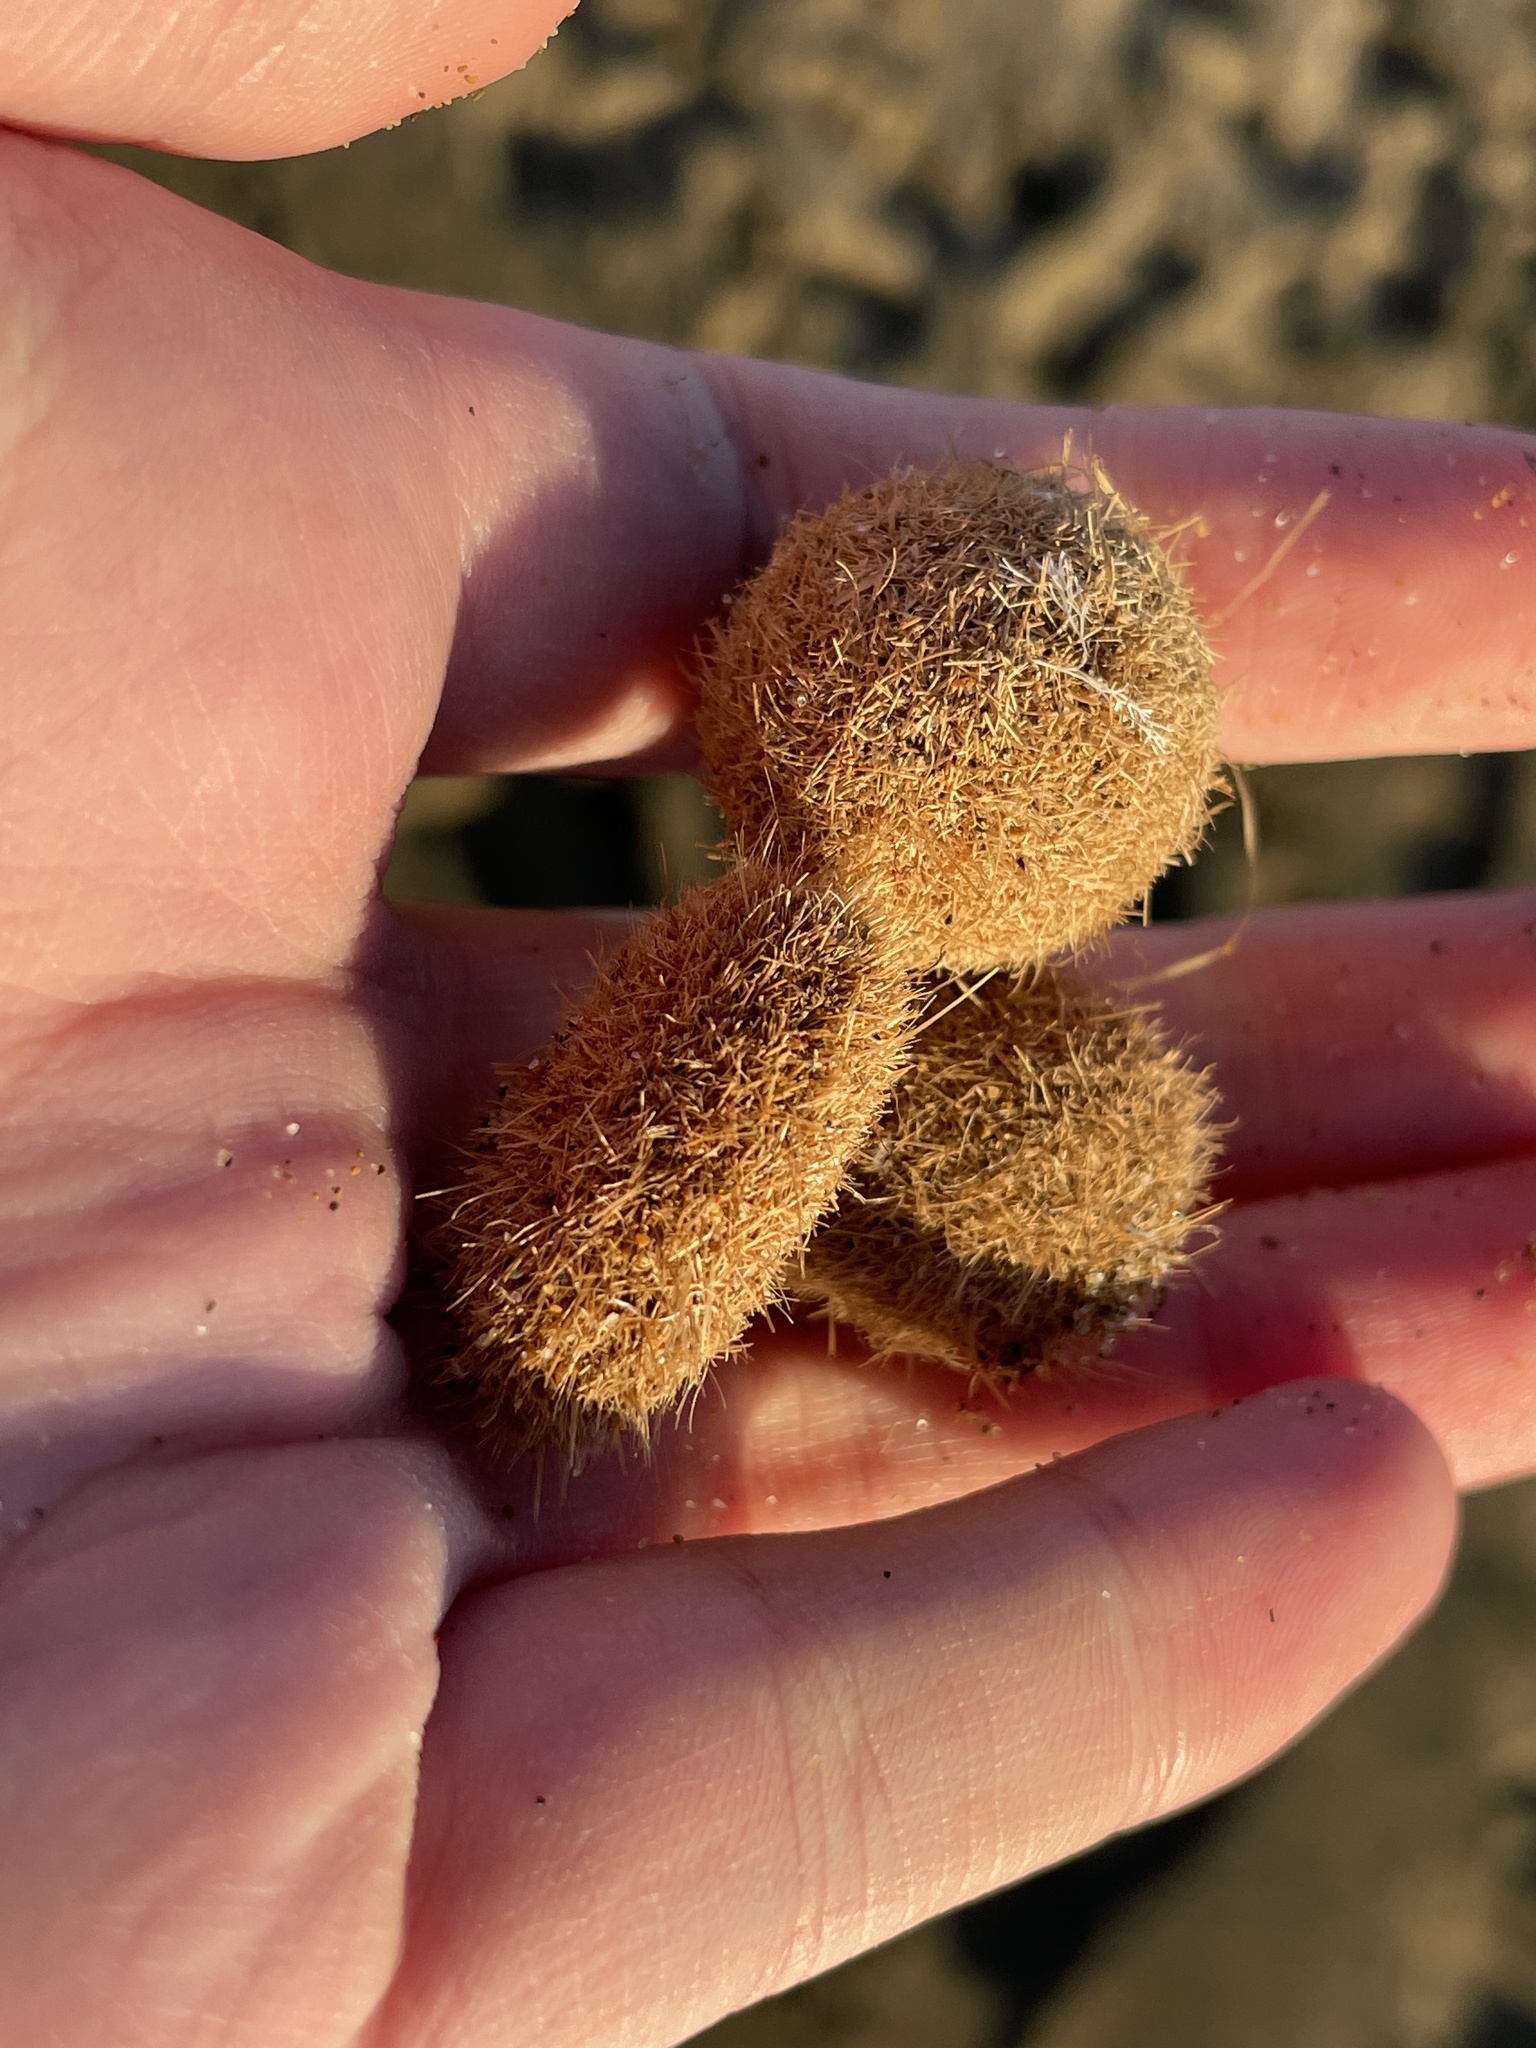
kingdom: Plantae
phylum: Tracheophyta
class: Liliopsida
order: Alismatales
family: Posidoniaceae
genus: Posidonia
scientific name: Posidonia oceanica
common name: Mediterranean tapeweed
